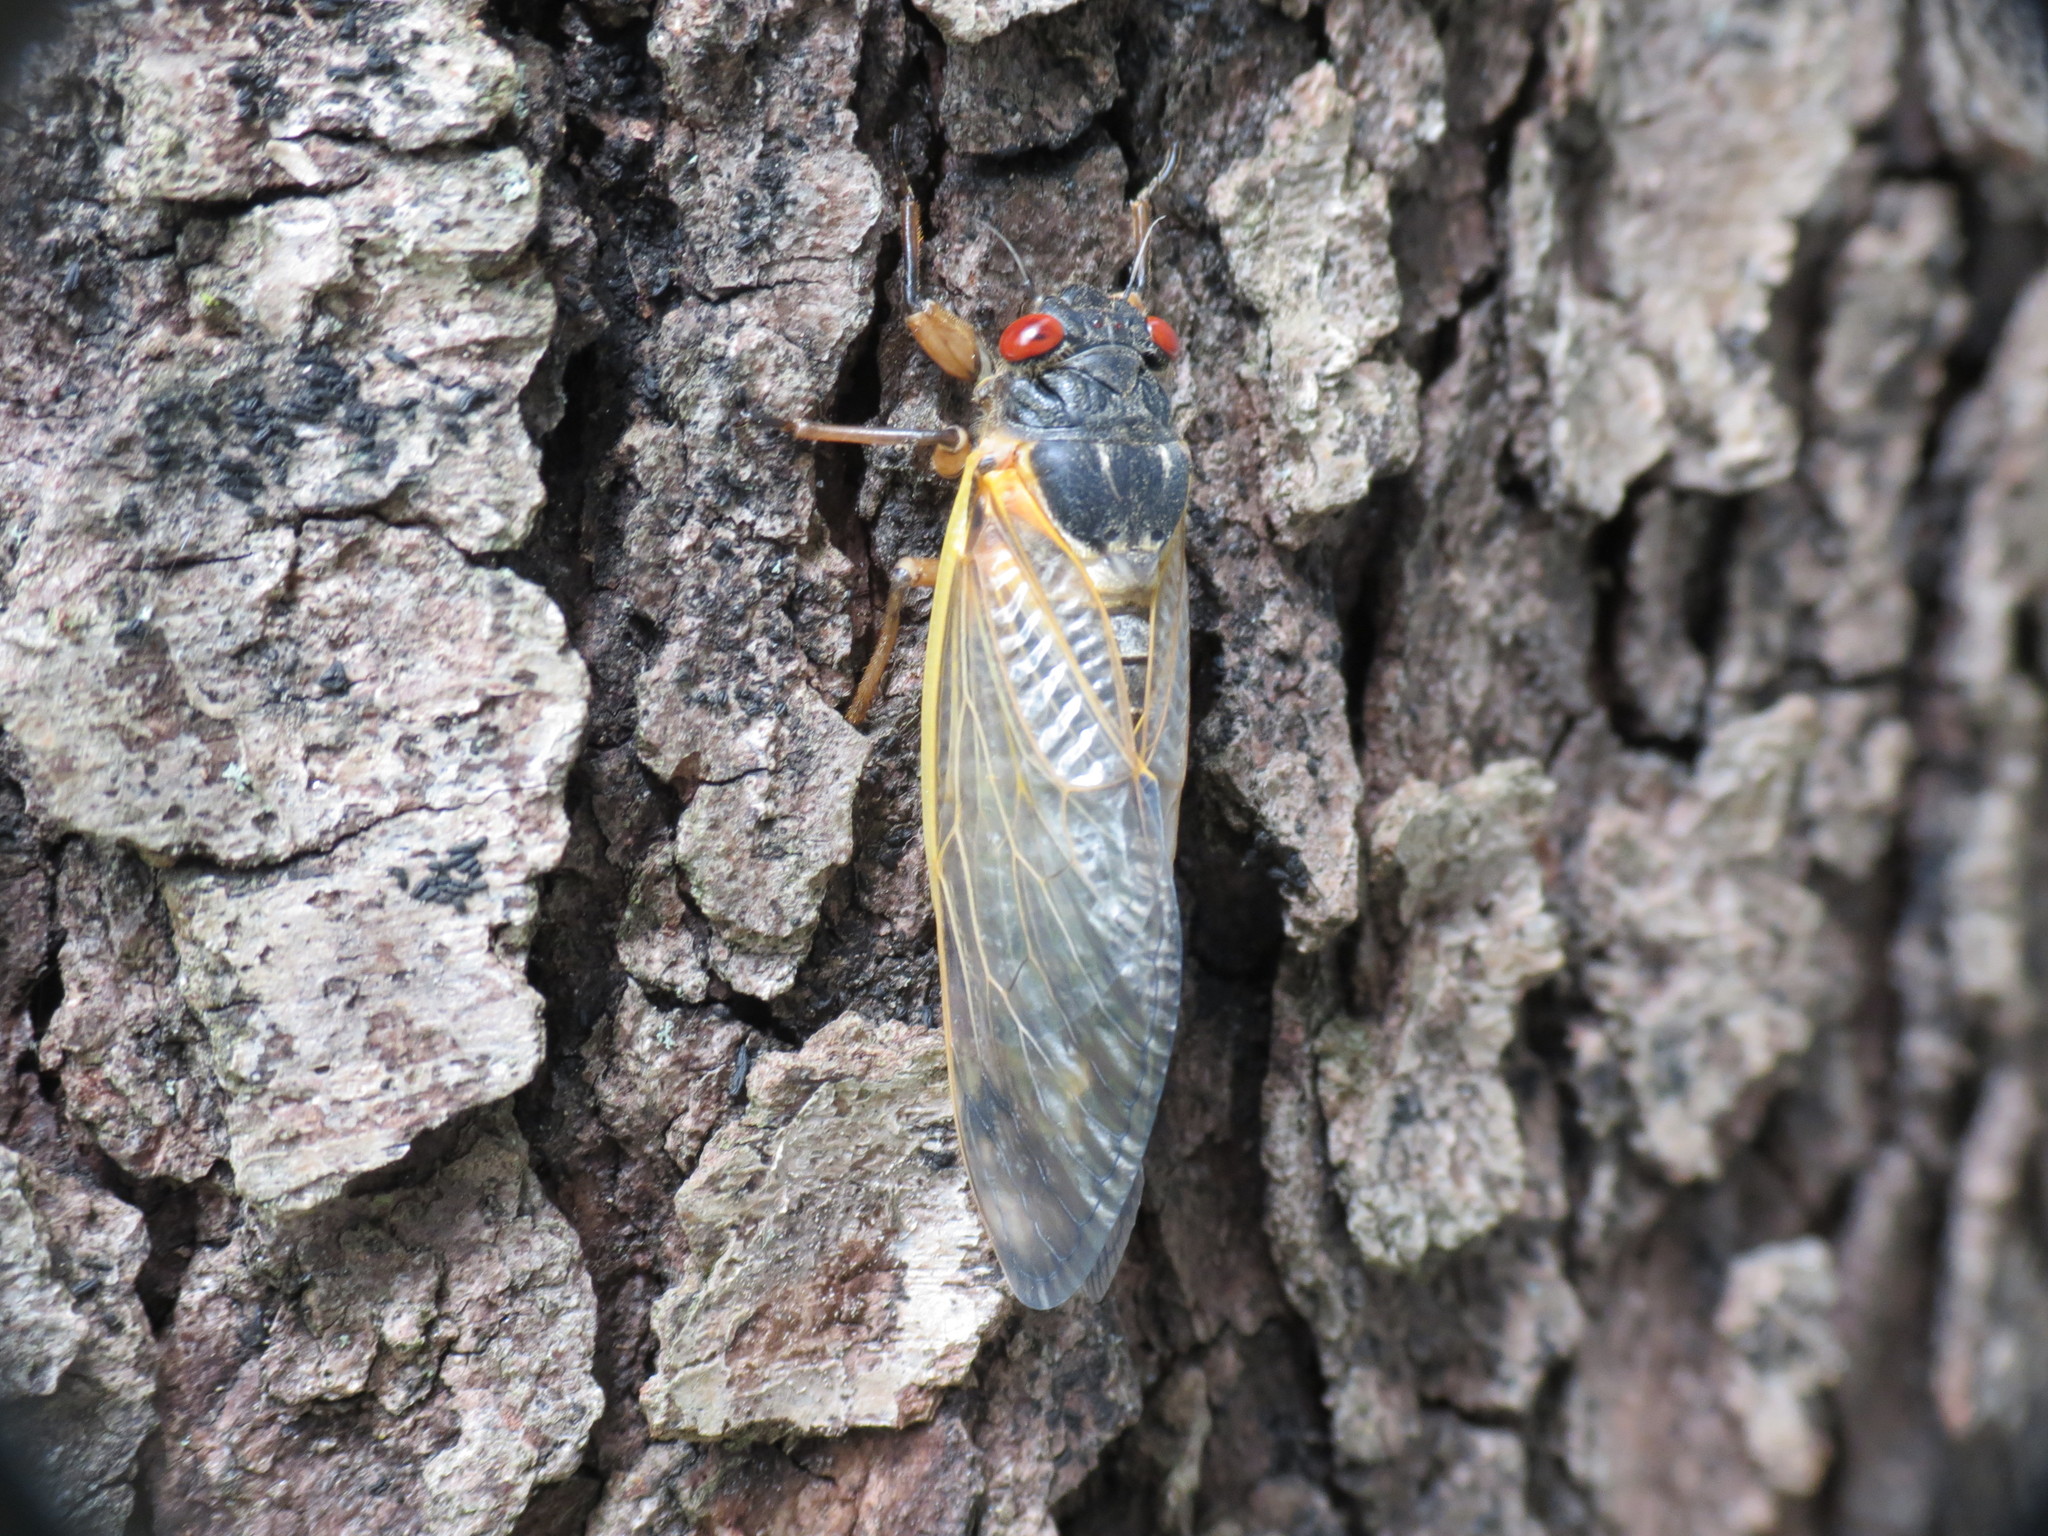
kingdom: Animalia
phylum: Arthropoda
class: Insecta
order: Hemiptera
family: Cicadidae
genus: Magicicada
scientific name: Magicicada
